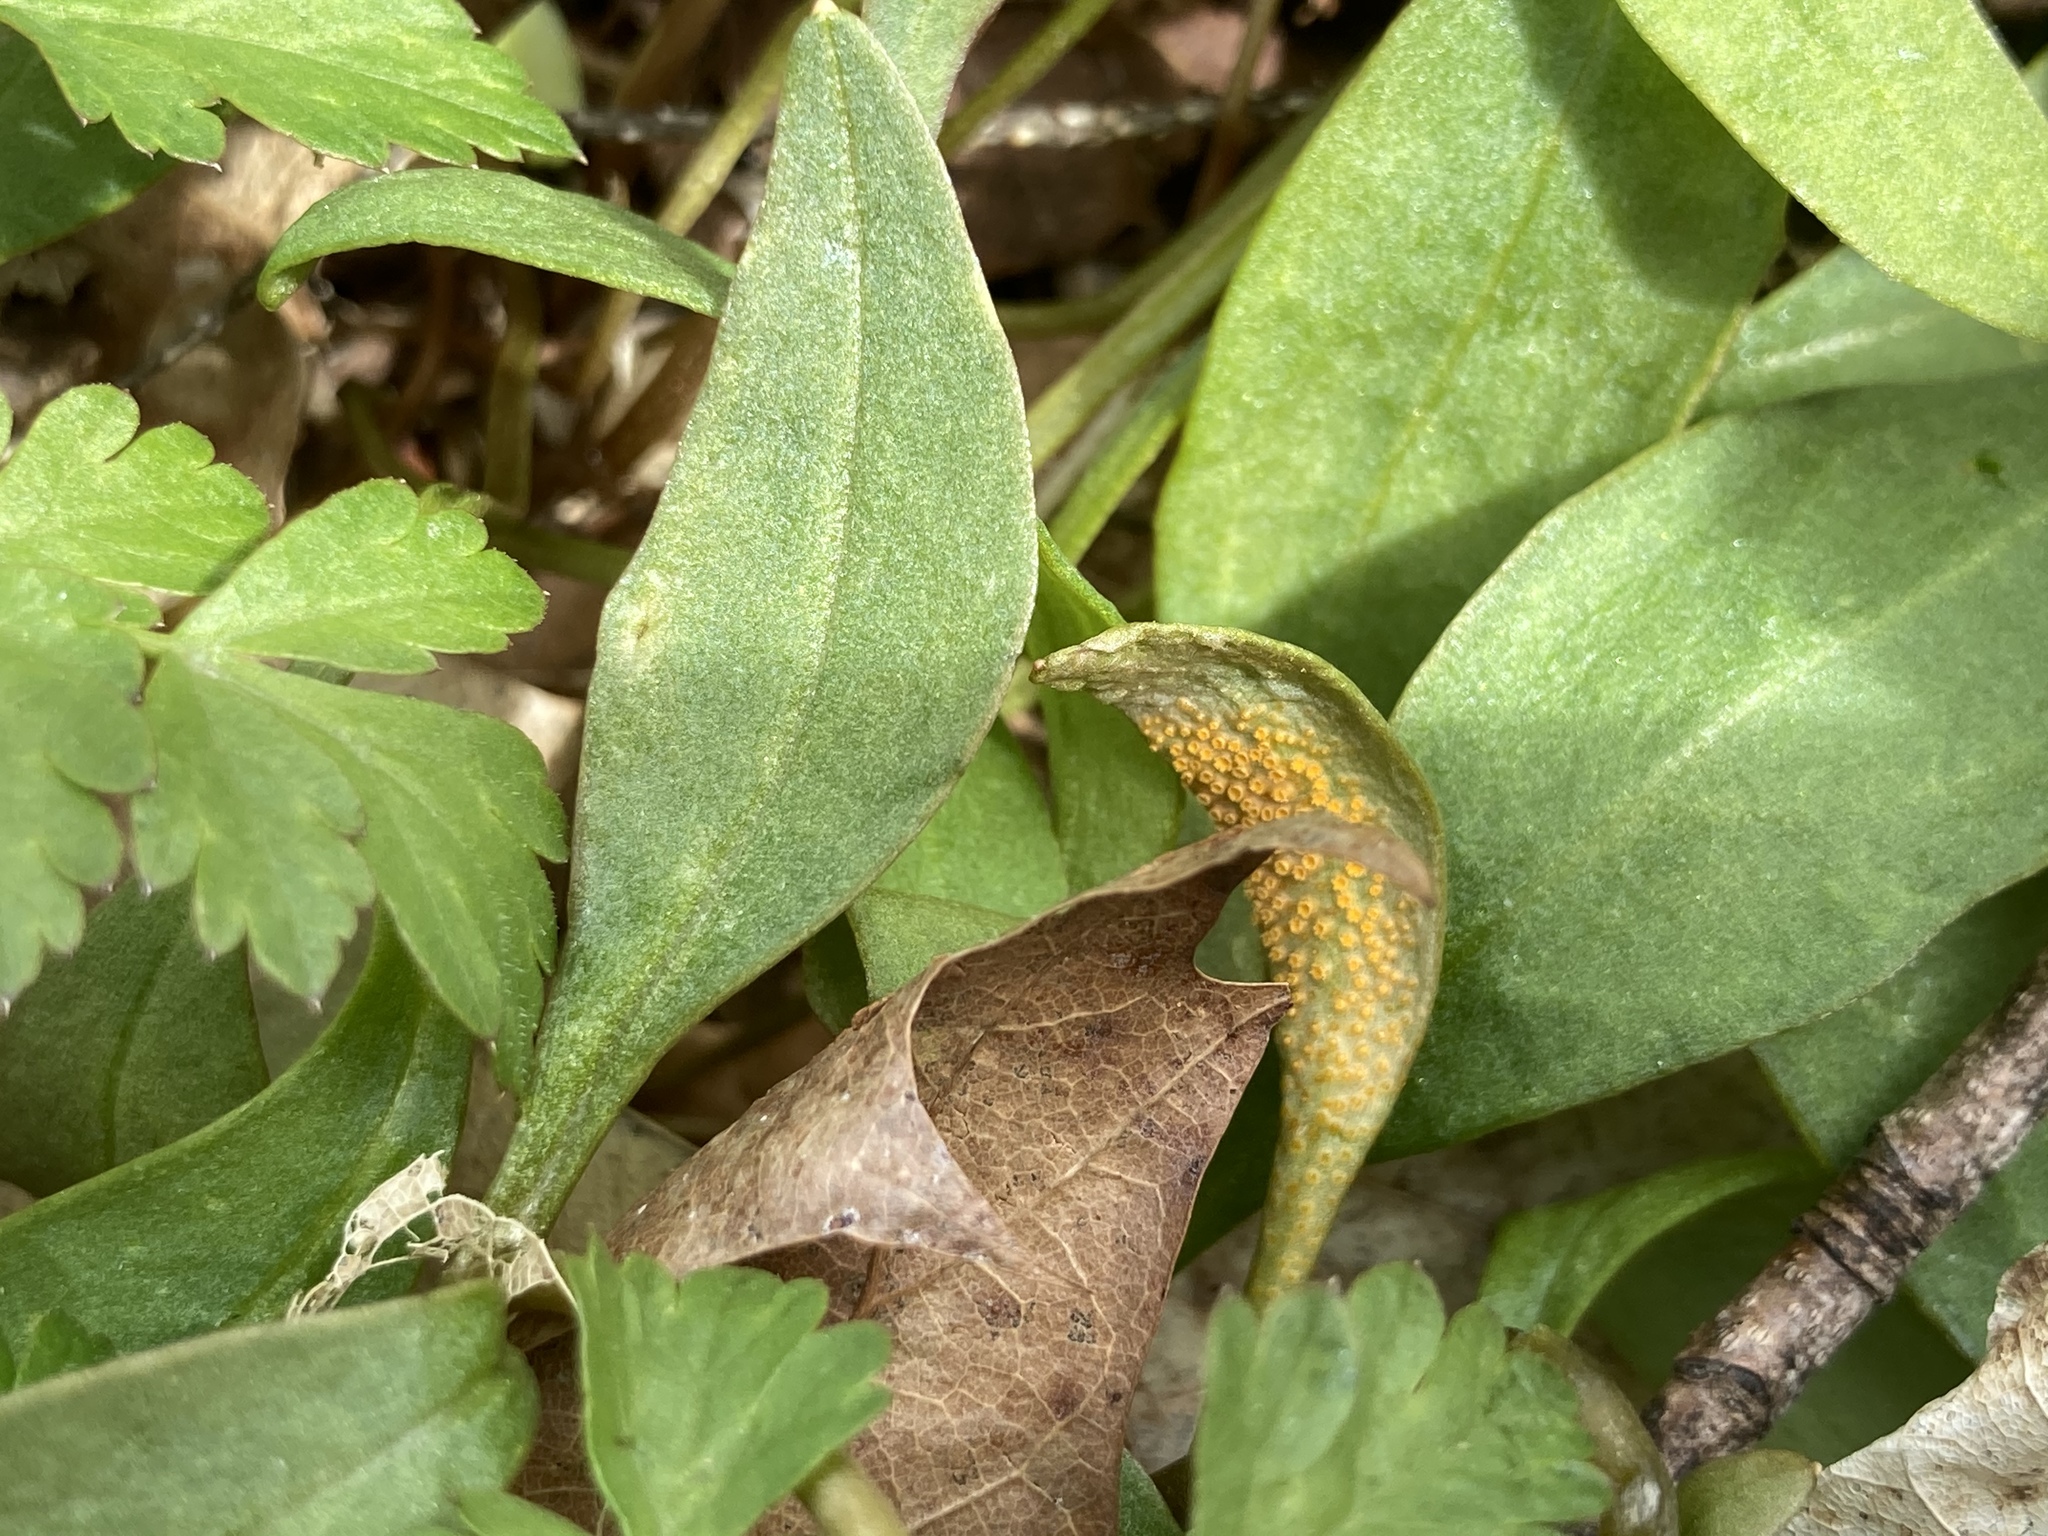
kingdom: Fungi
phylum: Basidiomycota
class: Pucciniomycetes
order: Pucciniales
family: Pucciniaceae
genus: Puccinia
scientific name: Puccinia mariae-wilsoniae
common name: Spring beauty rust
